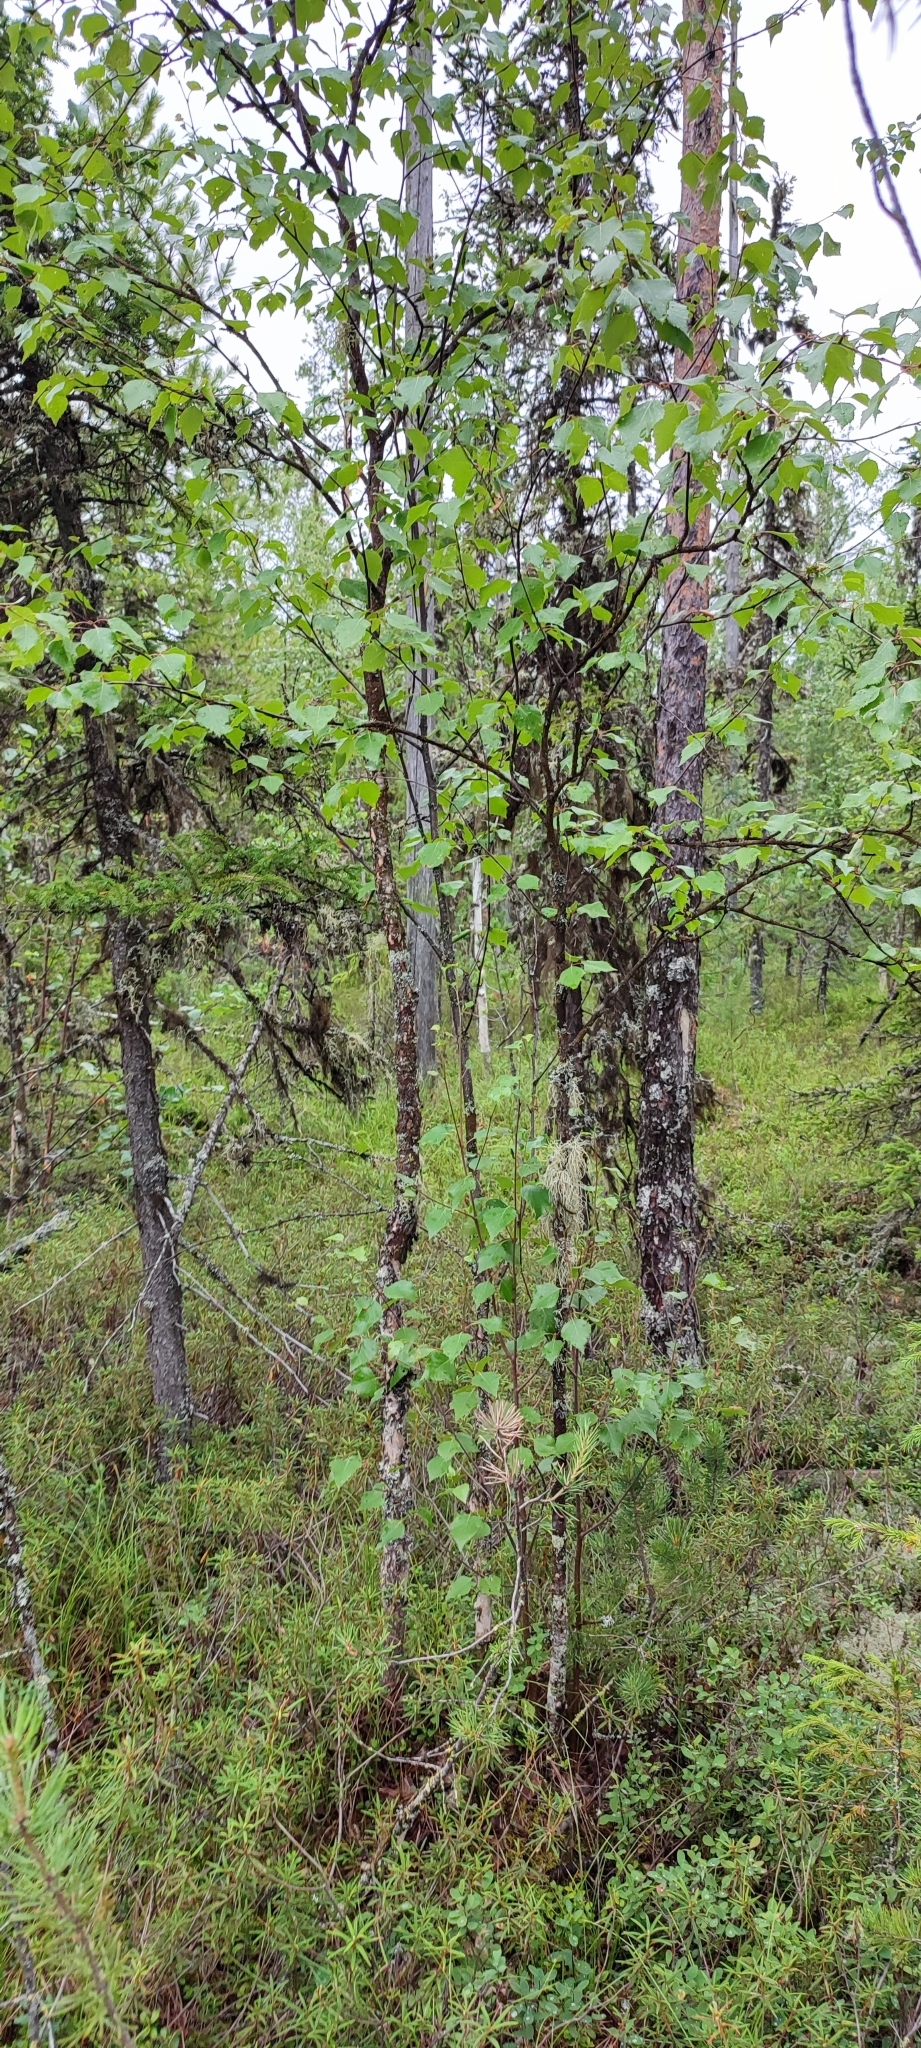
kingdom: Plantae
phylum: Tracheophyta
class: Magnoliopsida
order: Fagales
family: Betulaceae
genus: Betula
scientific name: Betula pubescens
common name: Downy birch
